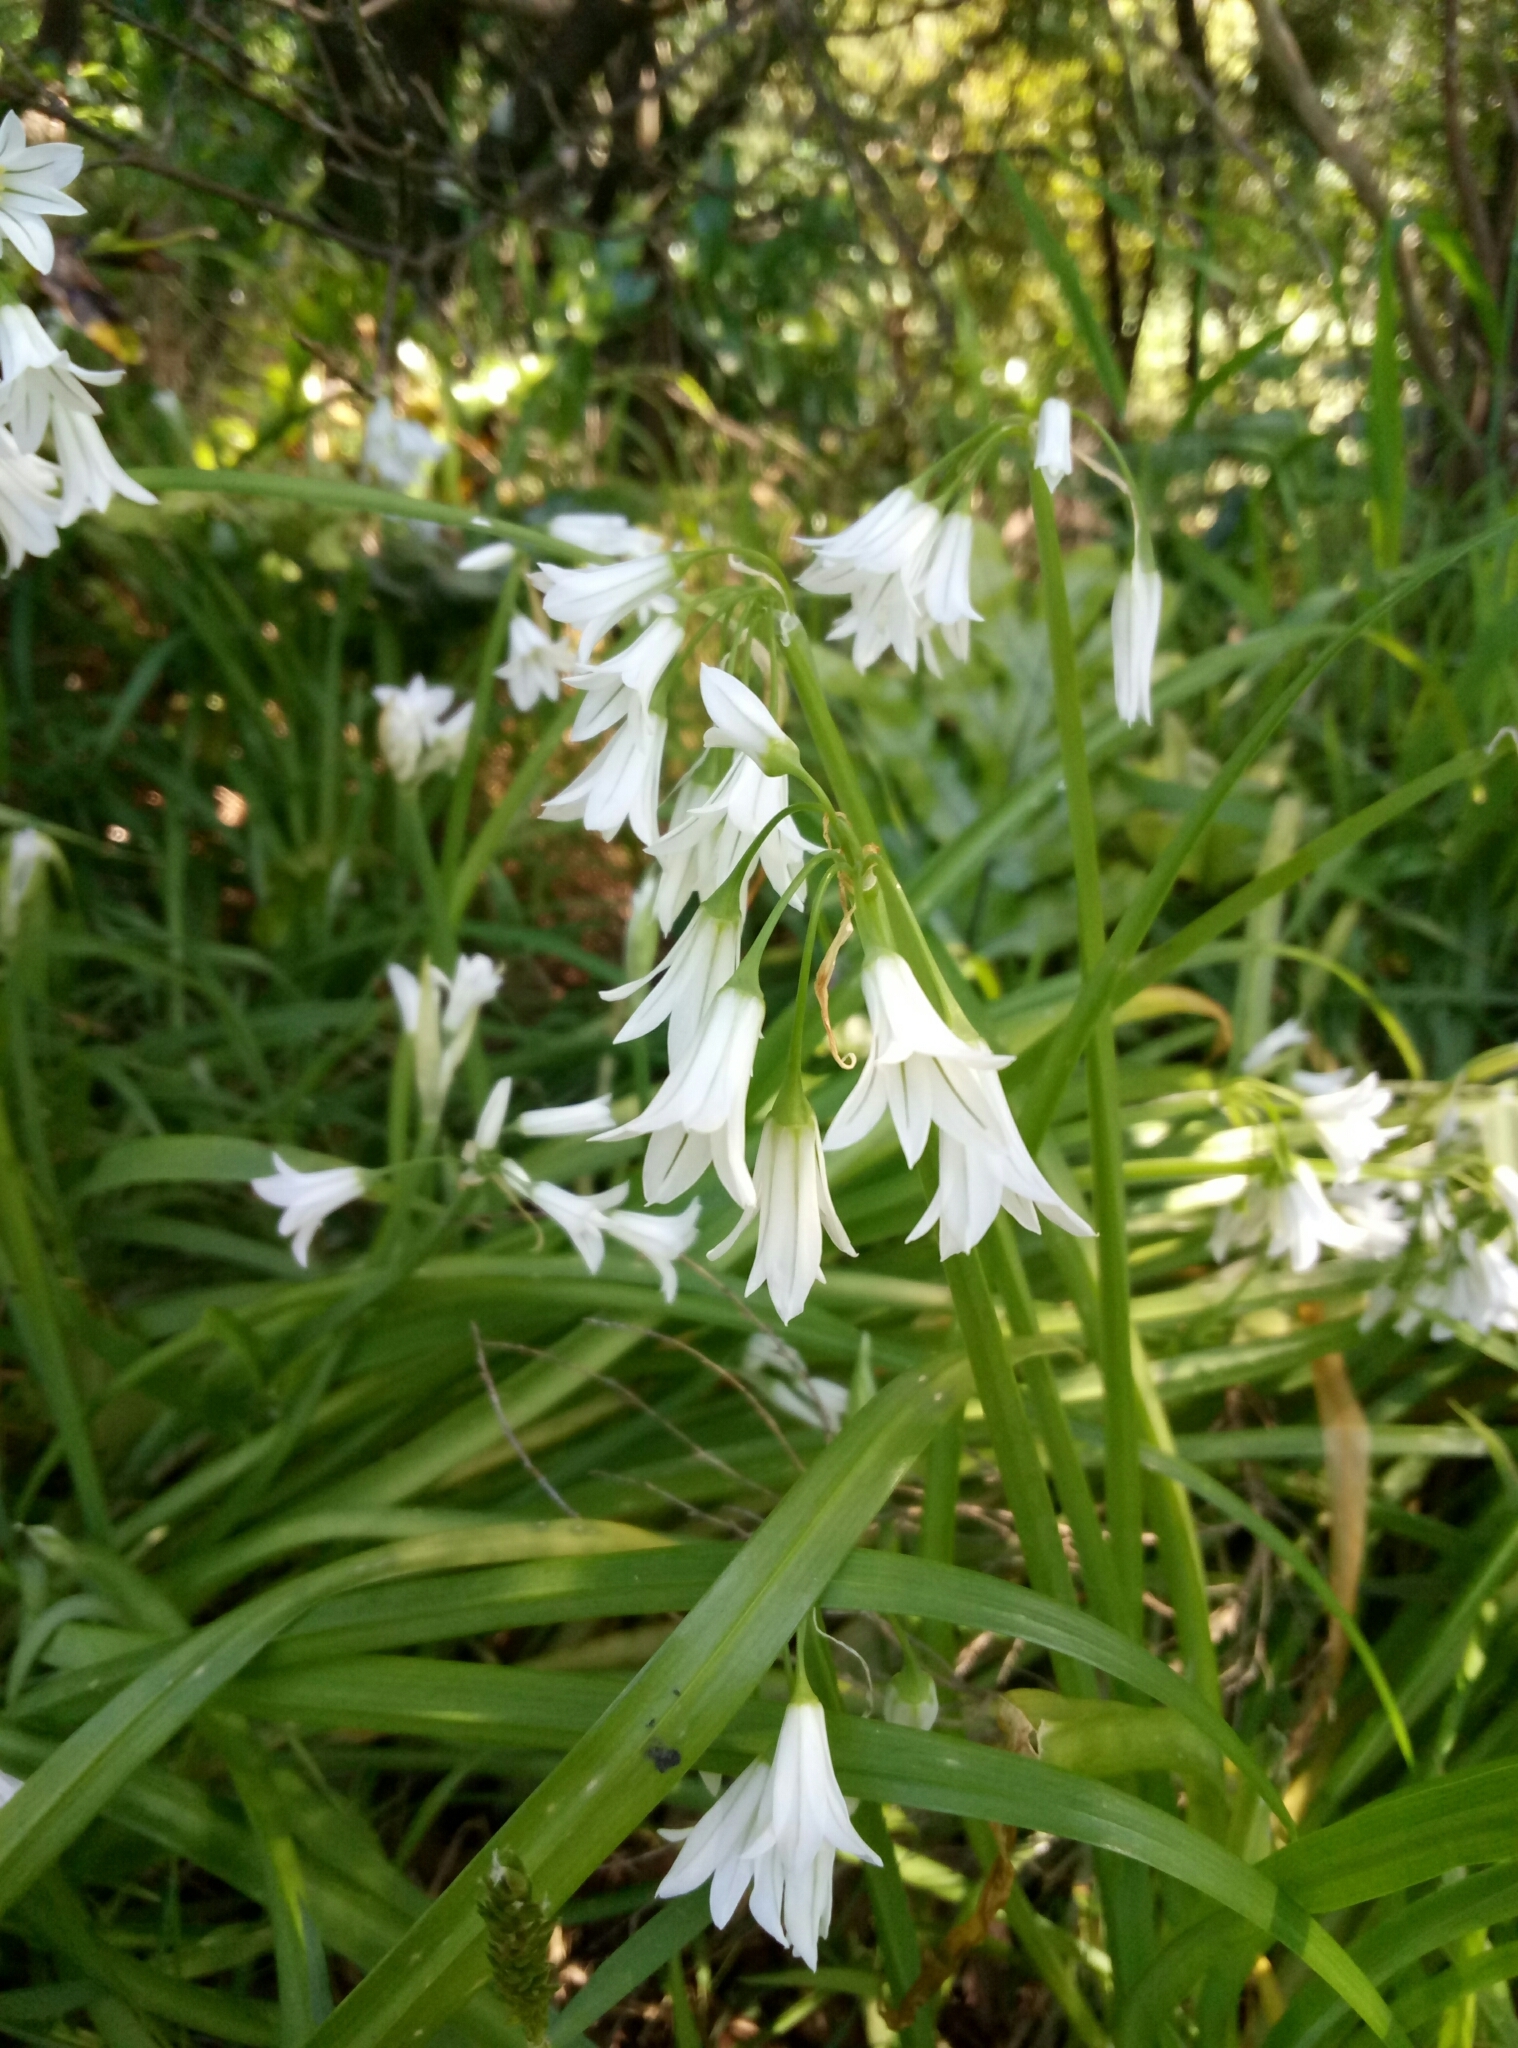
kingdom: Plantae
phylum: Tracheophyta
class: Liliopsida
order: Asparagales
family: Amaryllidaceae
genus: Allium
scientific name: Allium triquetrum
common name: Three-cornered garlic
